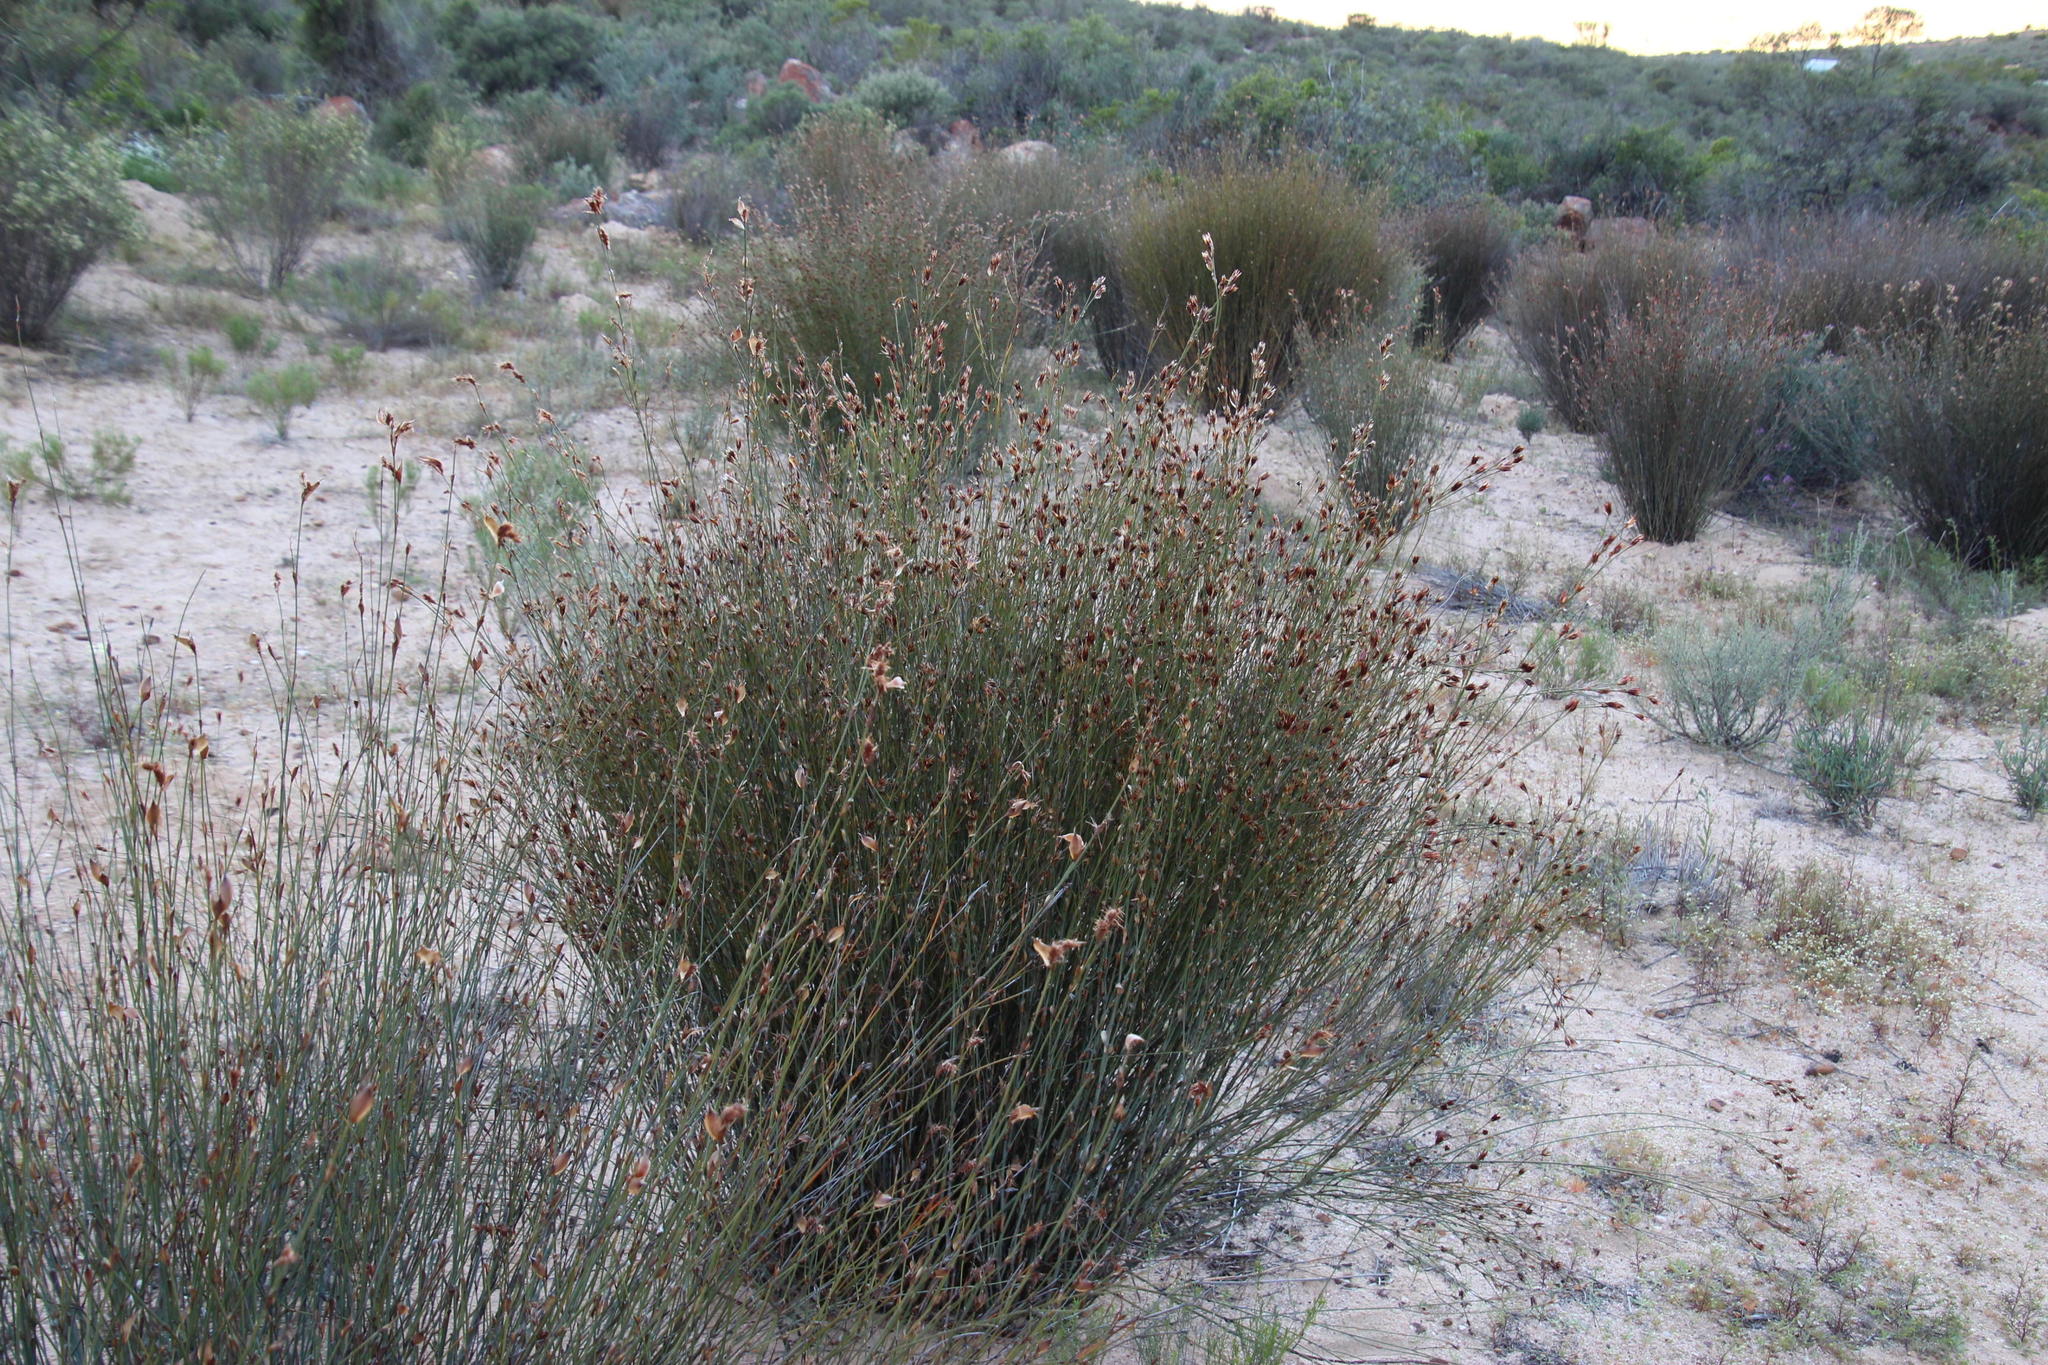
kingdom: Plantae
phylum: Tracheophyta
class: Liliopsida
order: Poales
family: Restionaceae
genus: Willdenowia
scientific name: Willdenowia incurvata
